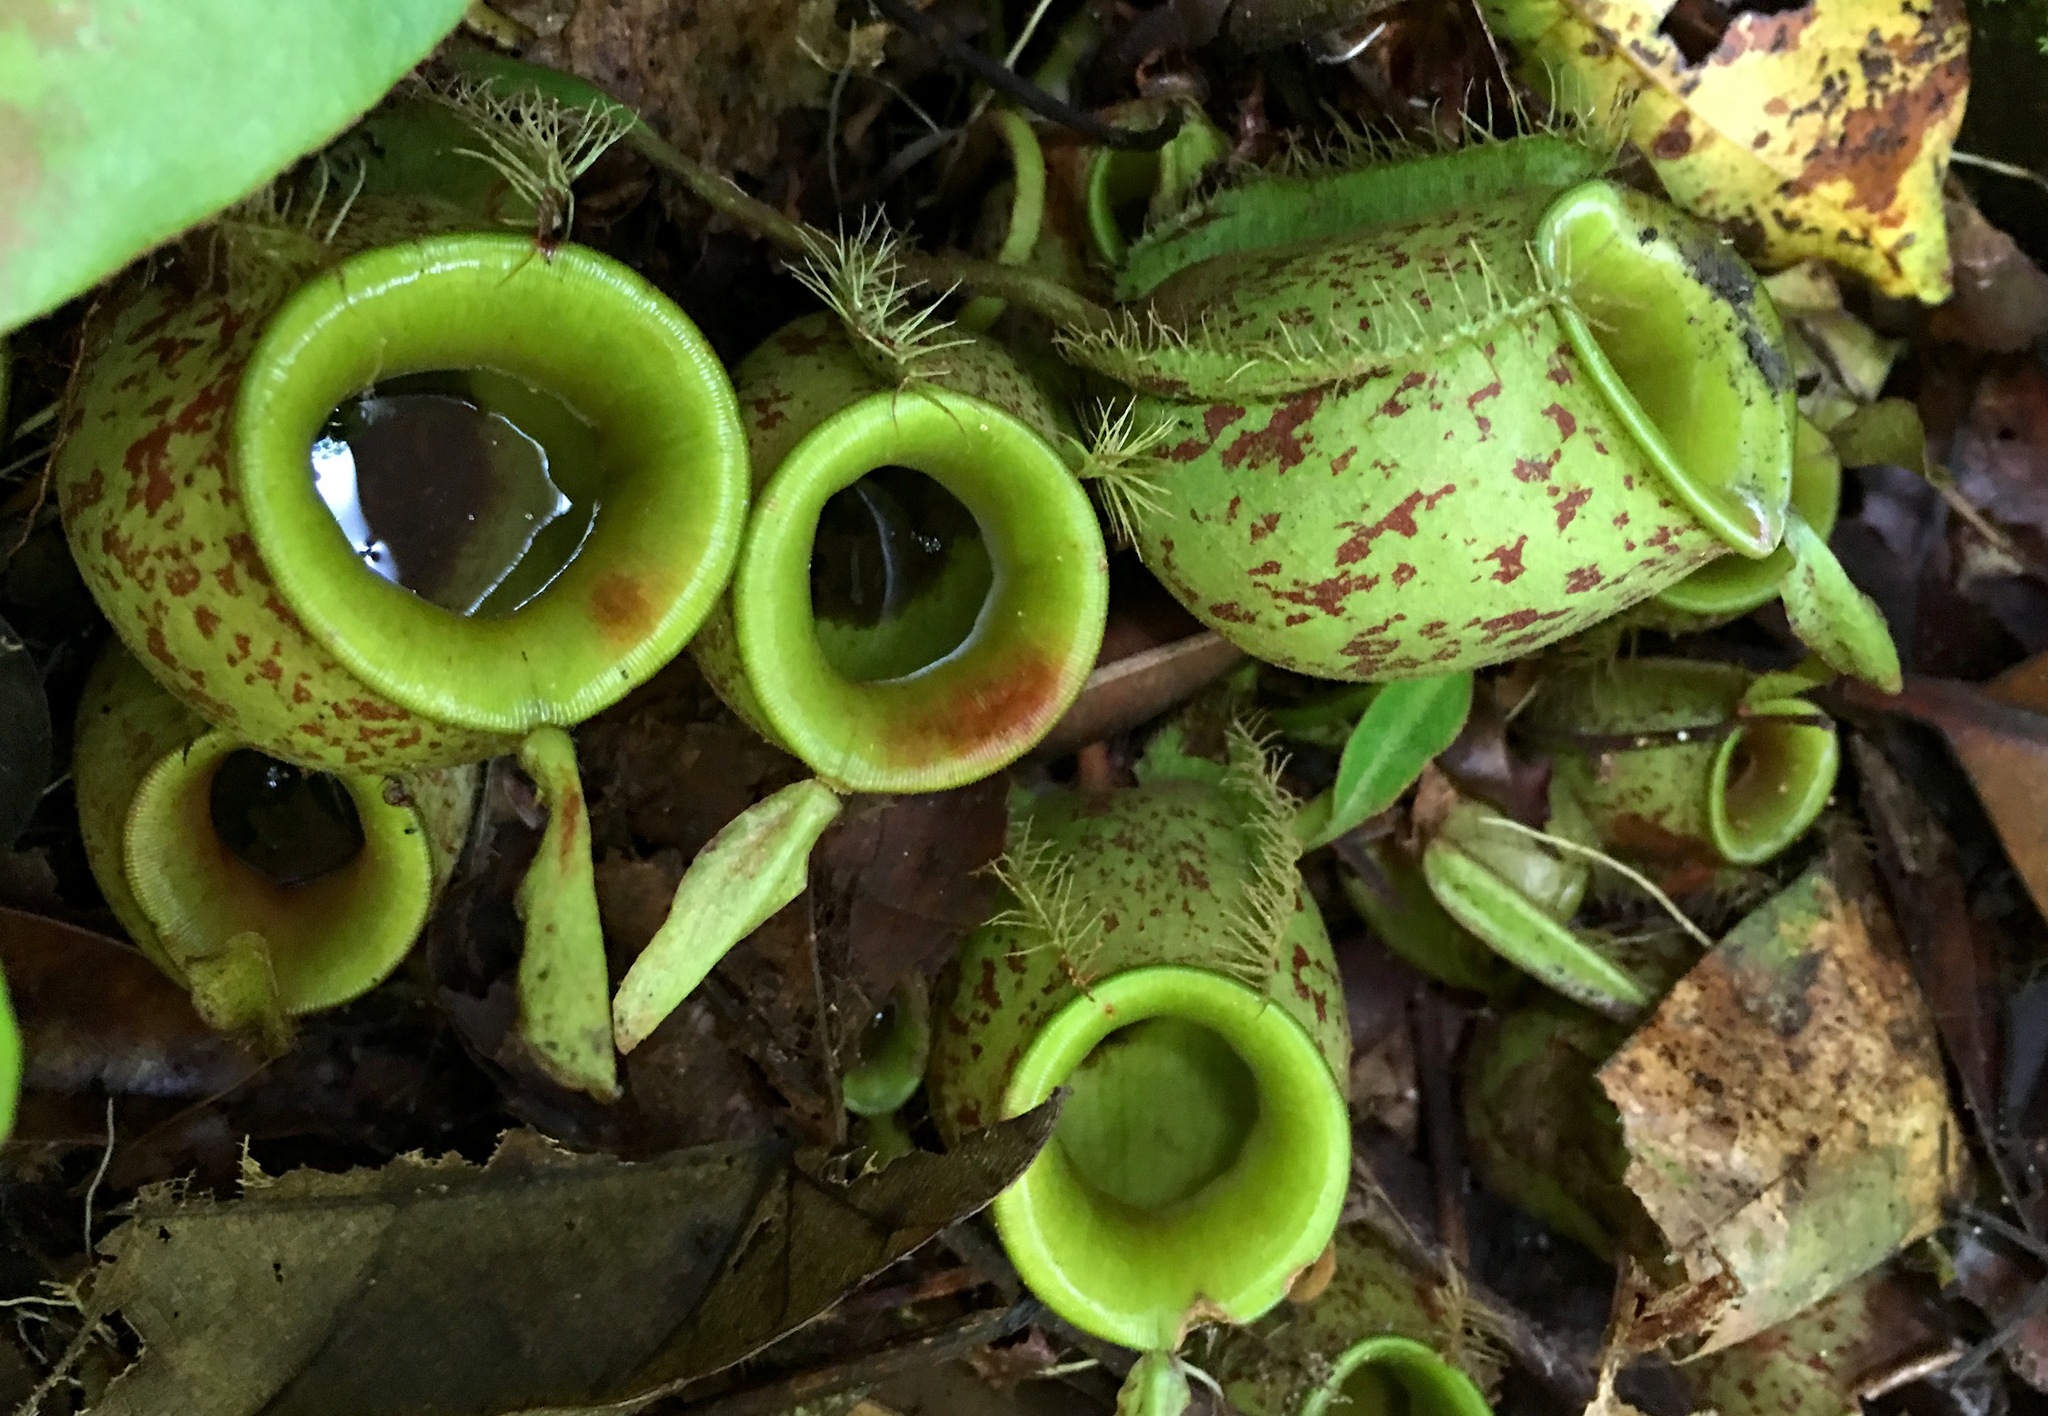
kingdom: Plantae
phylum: Tracheophyta
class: Magnoliopsida
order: Caryophyllales
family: Nepenthaceae
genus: Nepenthes
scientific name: Nepenthes ampullaria
